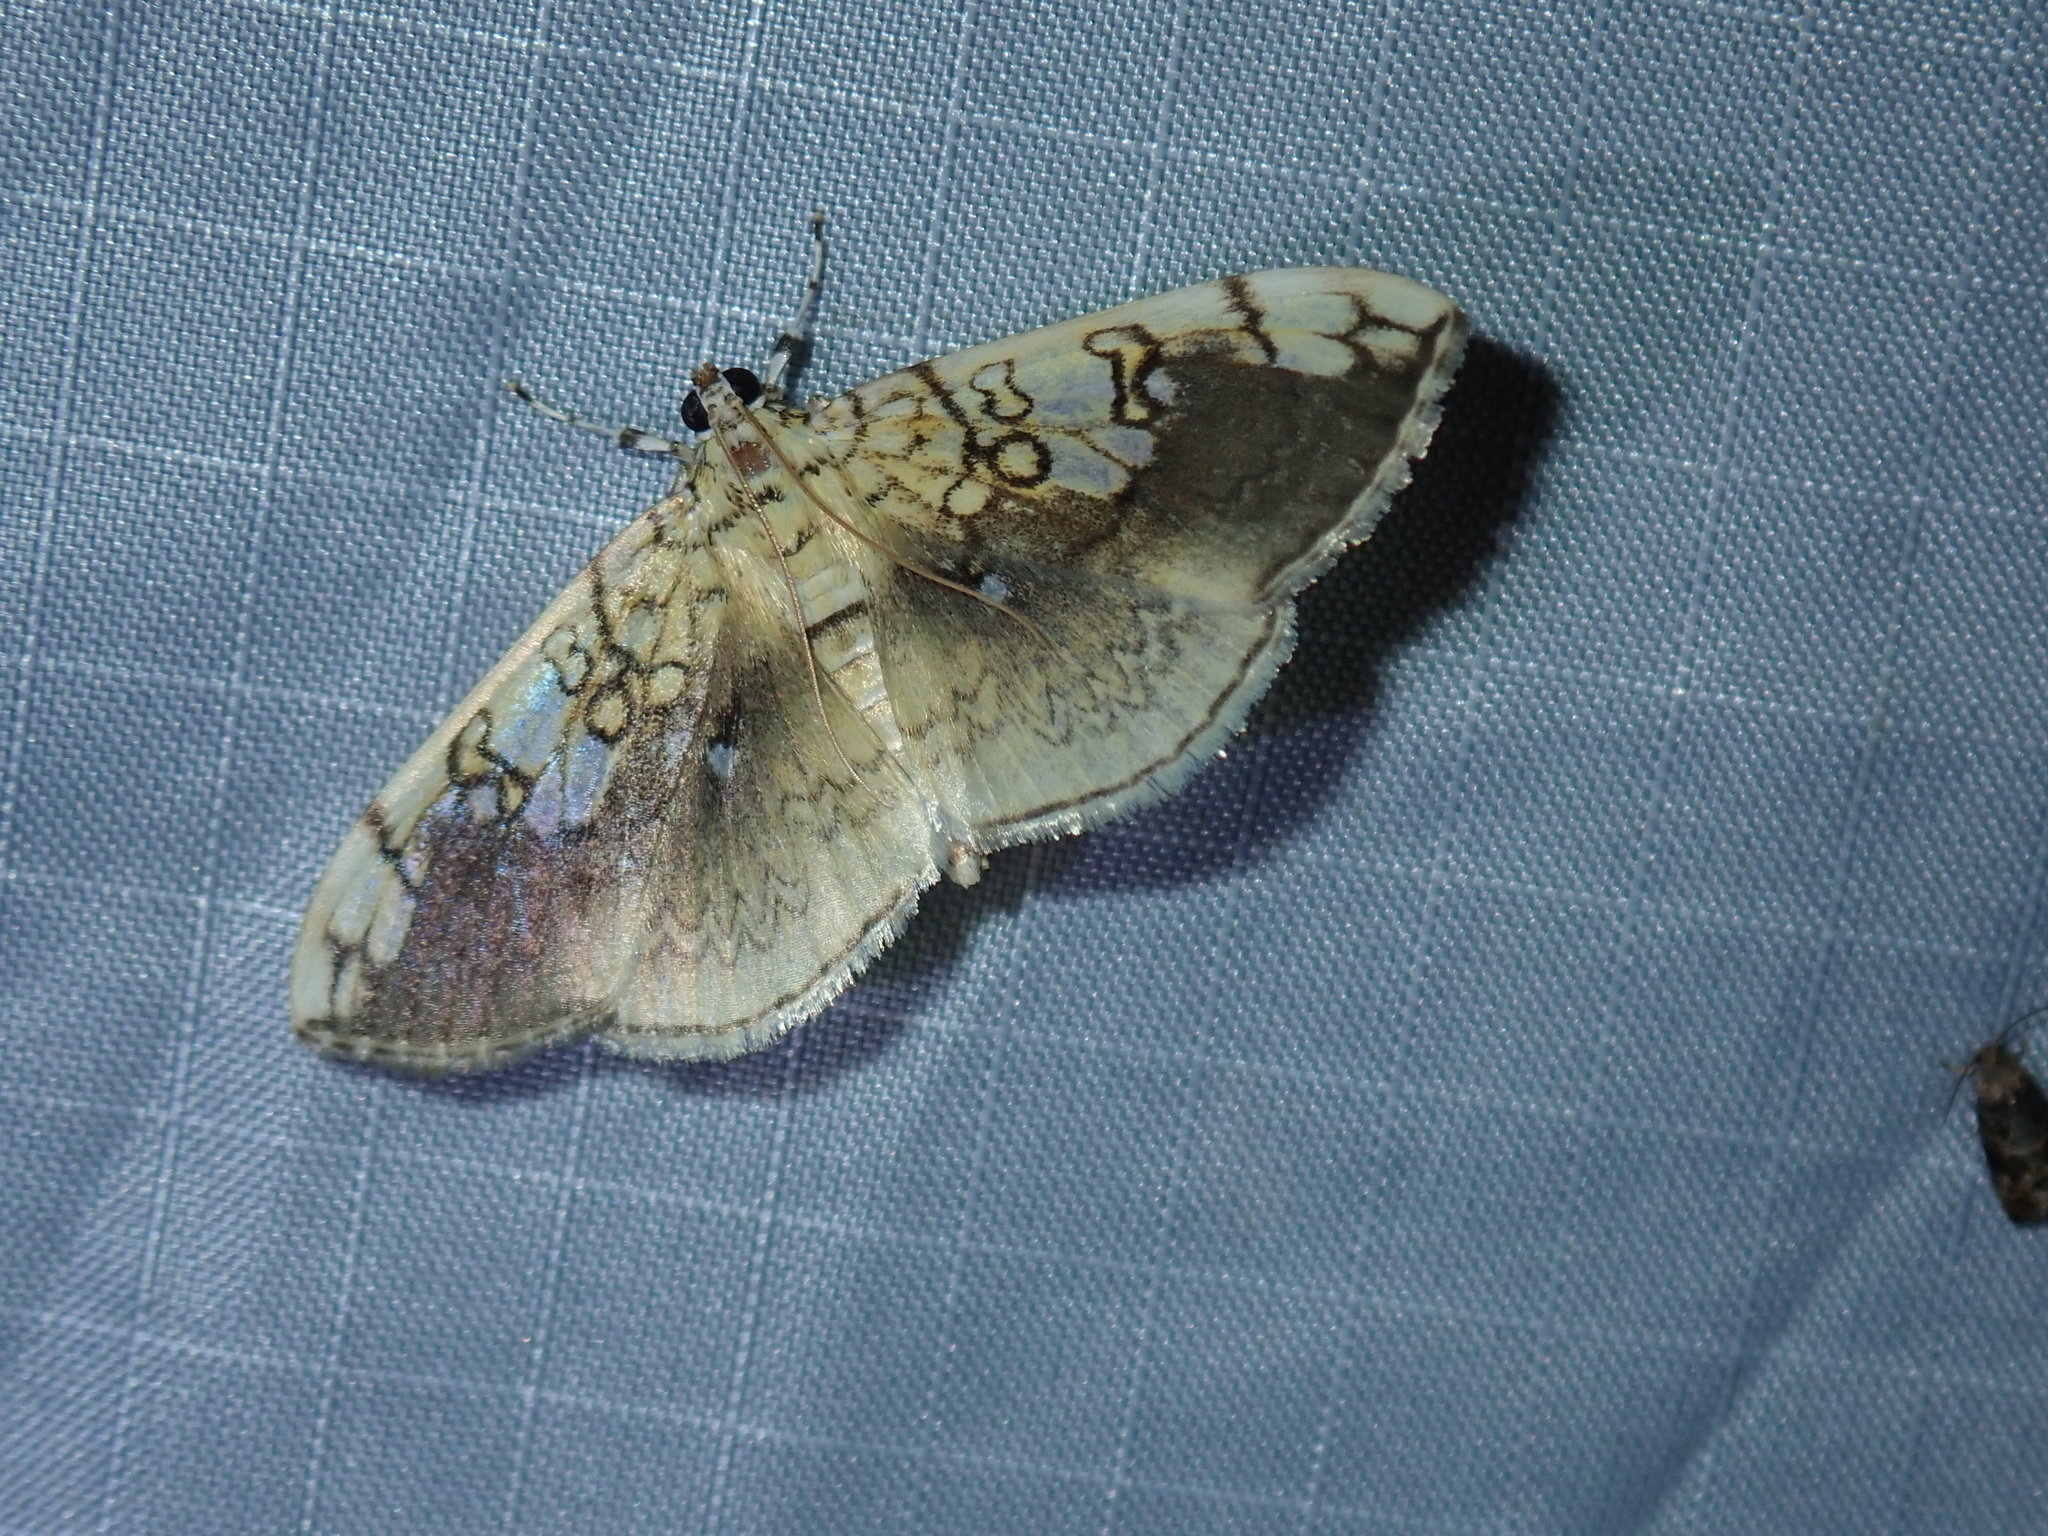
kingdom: Animalia
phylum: Arthropoda
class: Insecta
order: Lepidoptera
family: Crambidae
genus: Pantographa
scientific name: Pantographa limata
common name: Basswood leafroller moth
